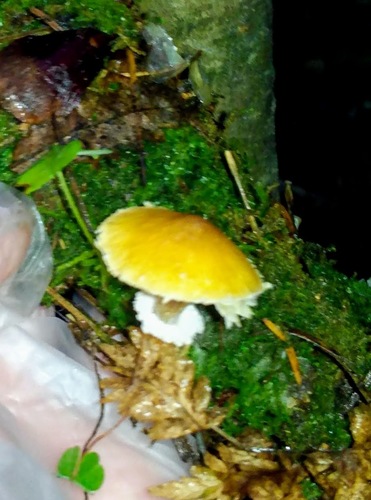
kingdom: Fungi
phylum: Basidiomycota
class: Agaricomycetes
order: Agaricales
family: Tricholomataceae
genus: Cystoderma
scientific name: Cystoderma
